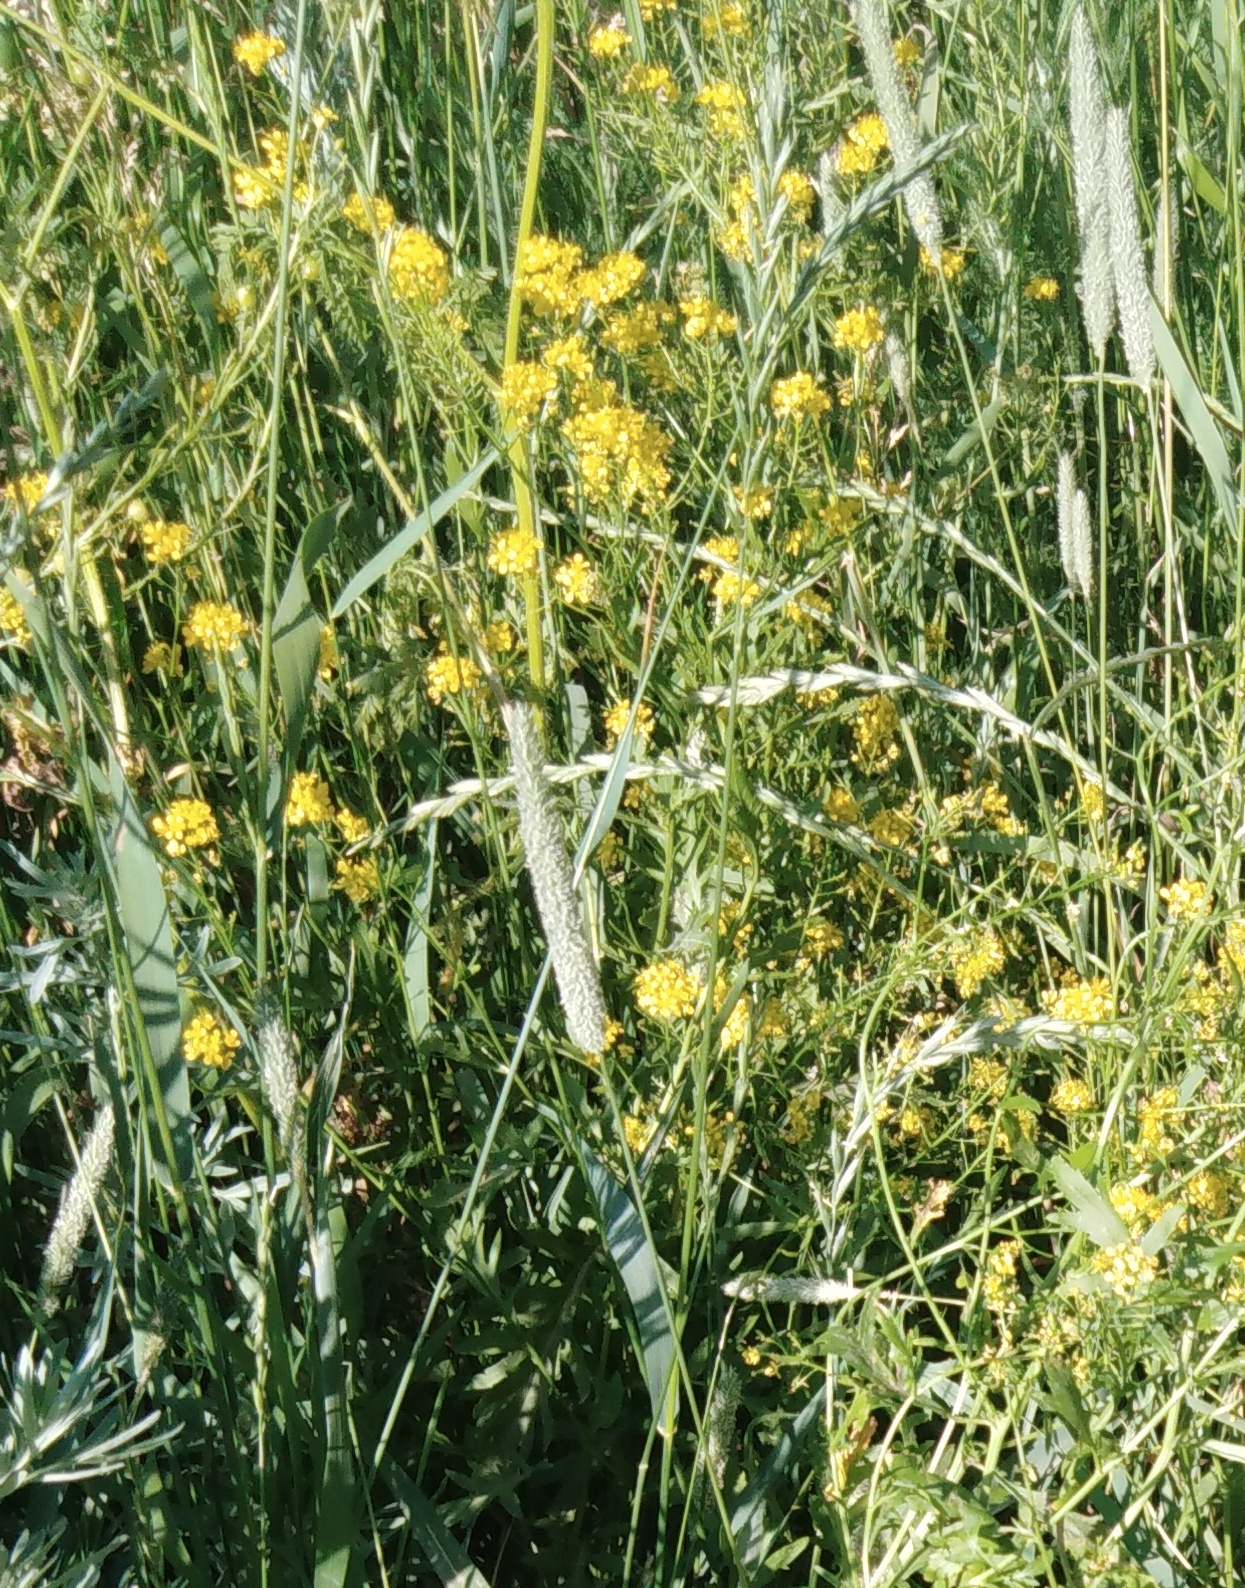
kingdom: Plantae
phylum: Tracheophyta
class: Magnoliopsida
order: Brassicales
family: Brassicaceae
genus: Bunias
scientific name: Bunias orientalis
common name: Warty-cabbage
